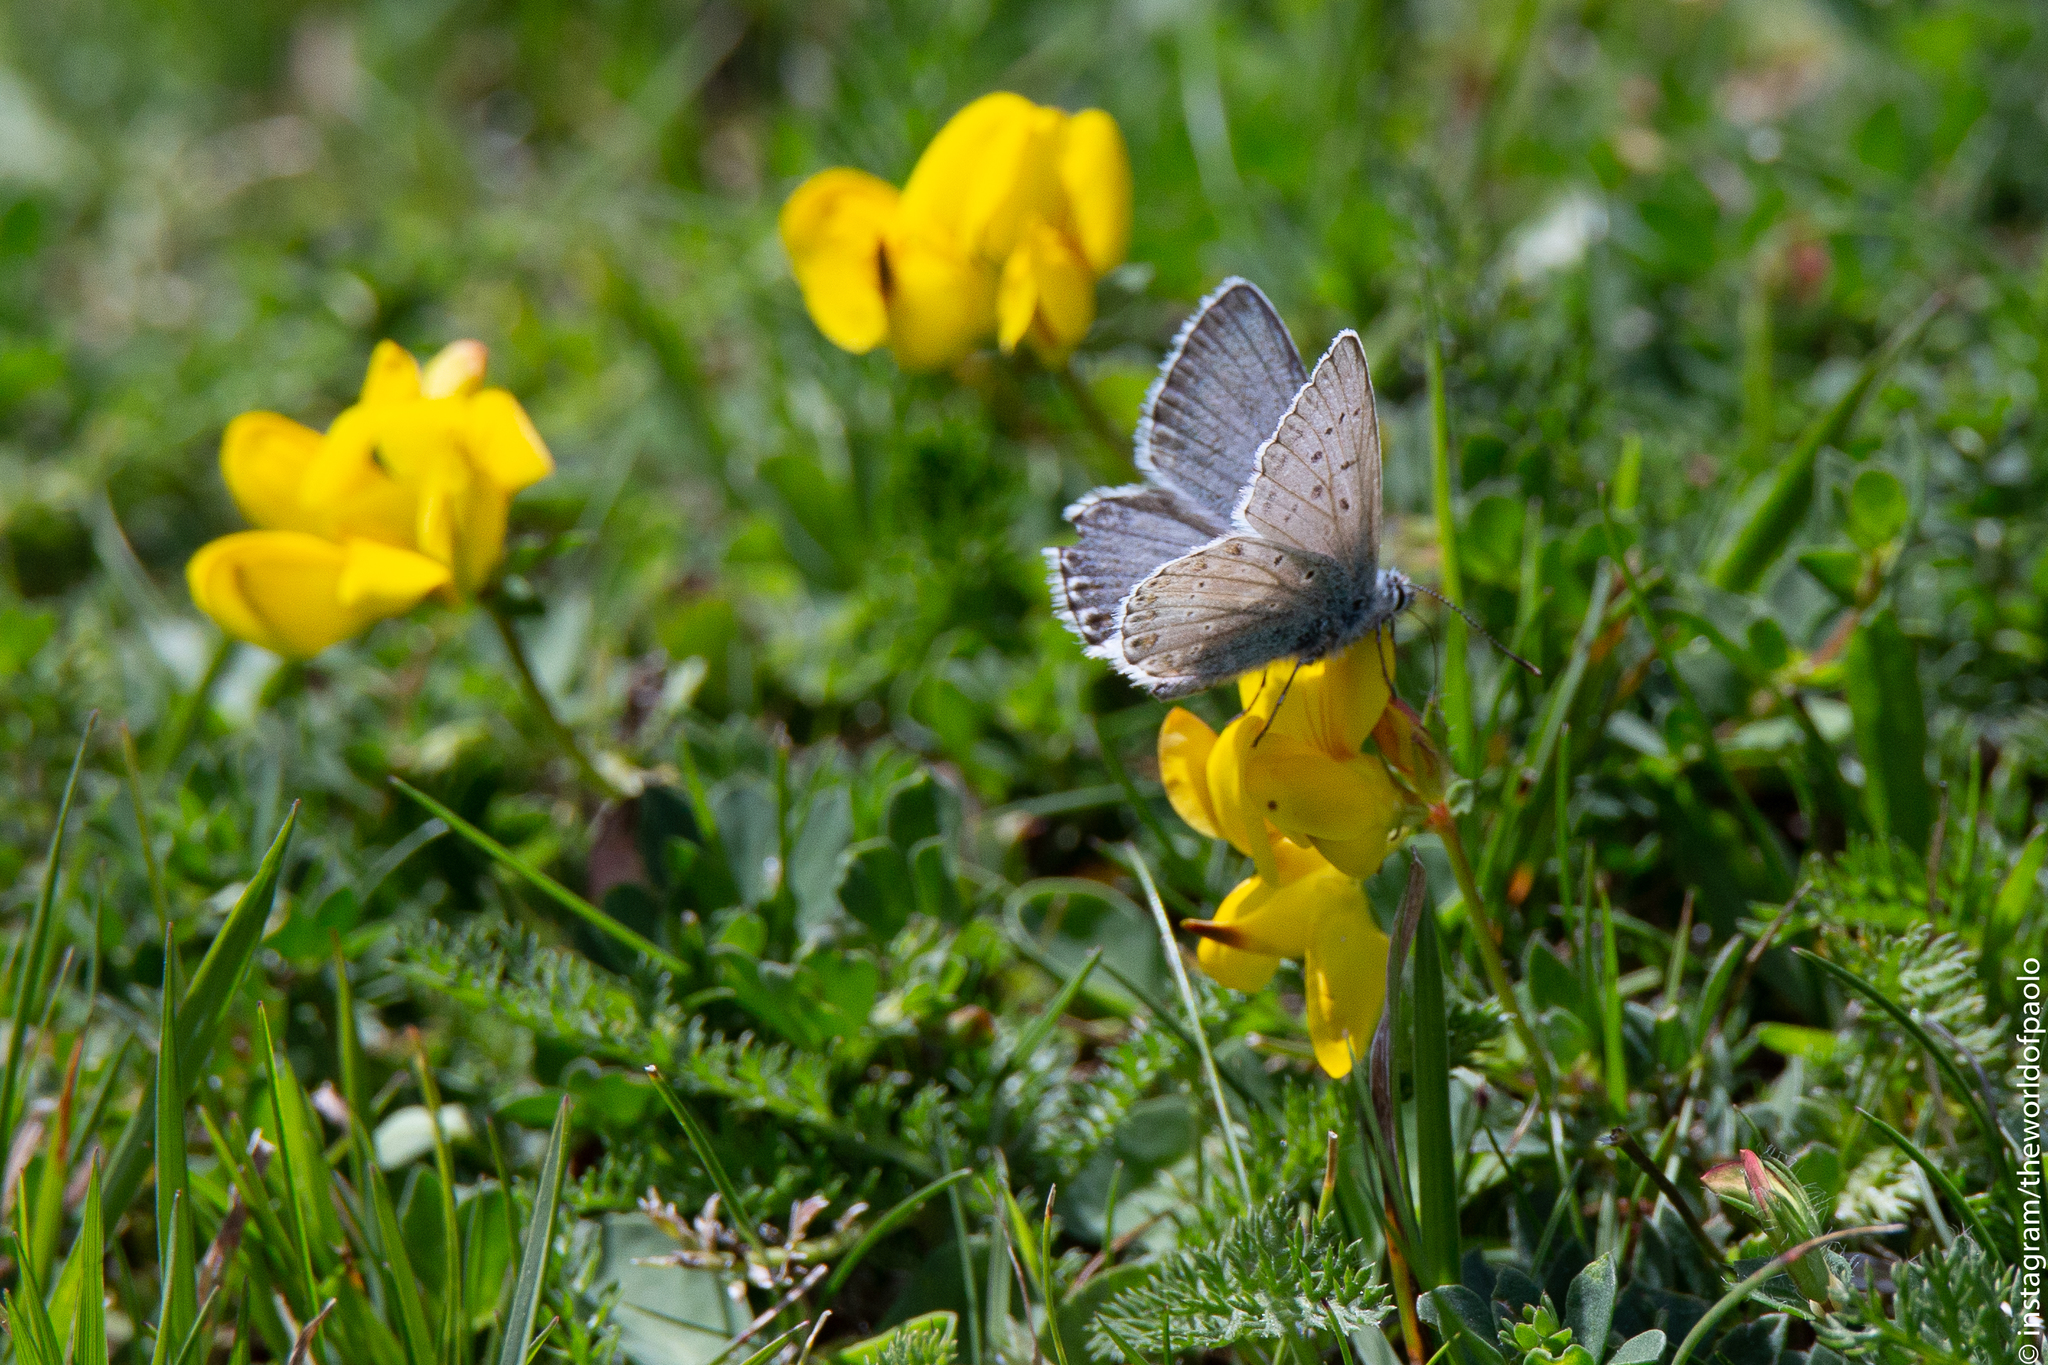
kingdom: Animalia
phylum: Arthropoda
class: Insecta
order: Lepidoptera
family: Lycaenidae
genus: Lysandra
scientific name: Lysandra coridon
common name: Chalkhill blue
